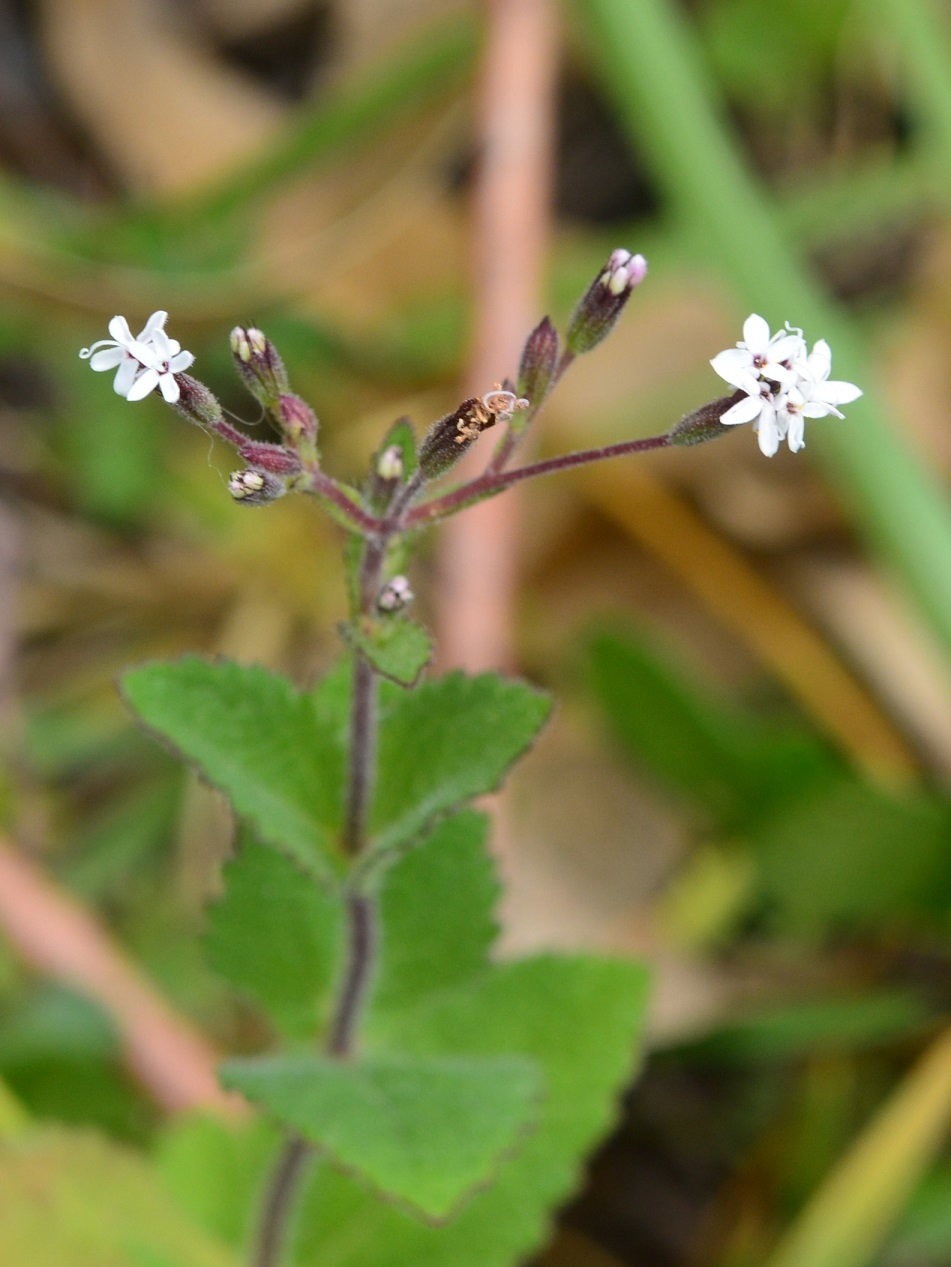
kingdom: Plantae
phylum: Tracheophyta
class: Magnoliopsida
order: Asterales
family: Asteraceae
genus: Stevia
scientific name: Stevia elatior
